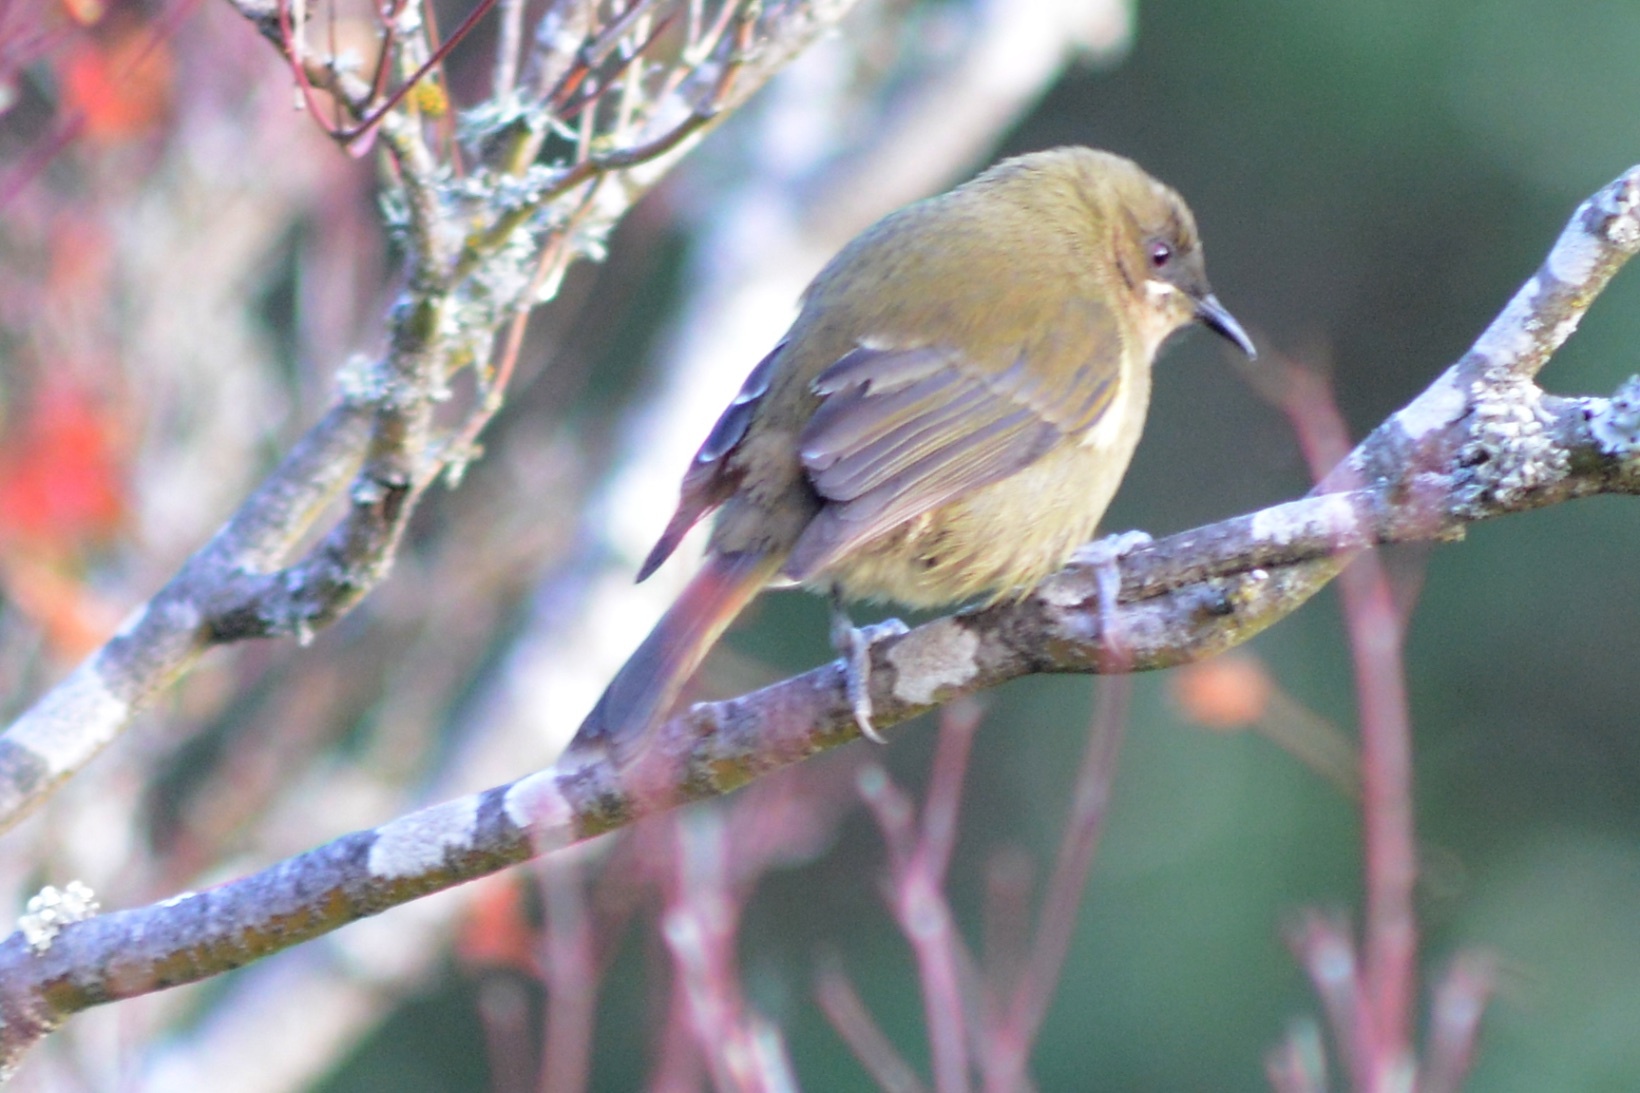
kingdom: Animalia
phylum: Chordata
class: Aves
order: Passeriformes
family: Meliphagidae
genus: Anthornis
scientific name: Anthornis melanura
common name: New zealand bellbird
